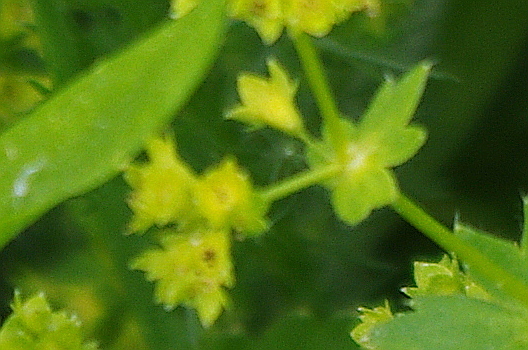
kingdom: Plantae
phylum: Tracheophyta
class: Magnoliopsida
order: Rosales
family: Rosaceae
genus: Alchemilla
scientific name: Alchemilla micans
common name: Gleaming lady's mantle
